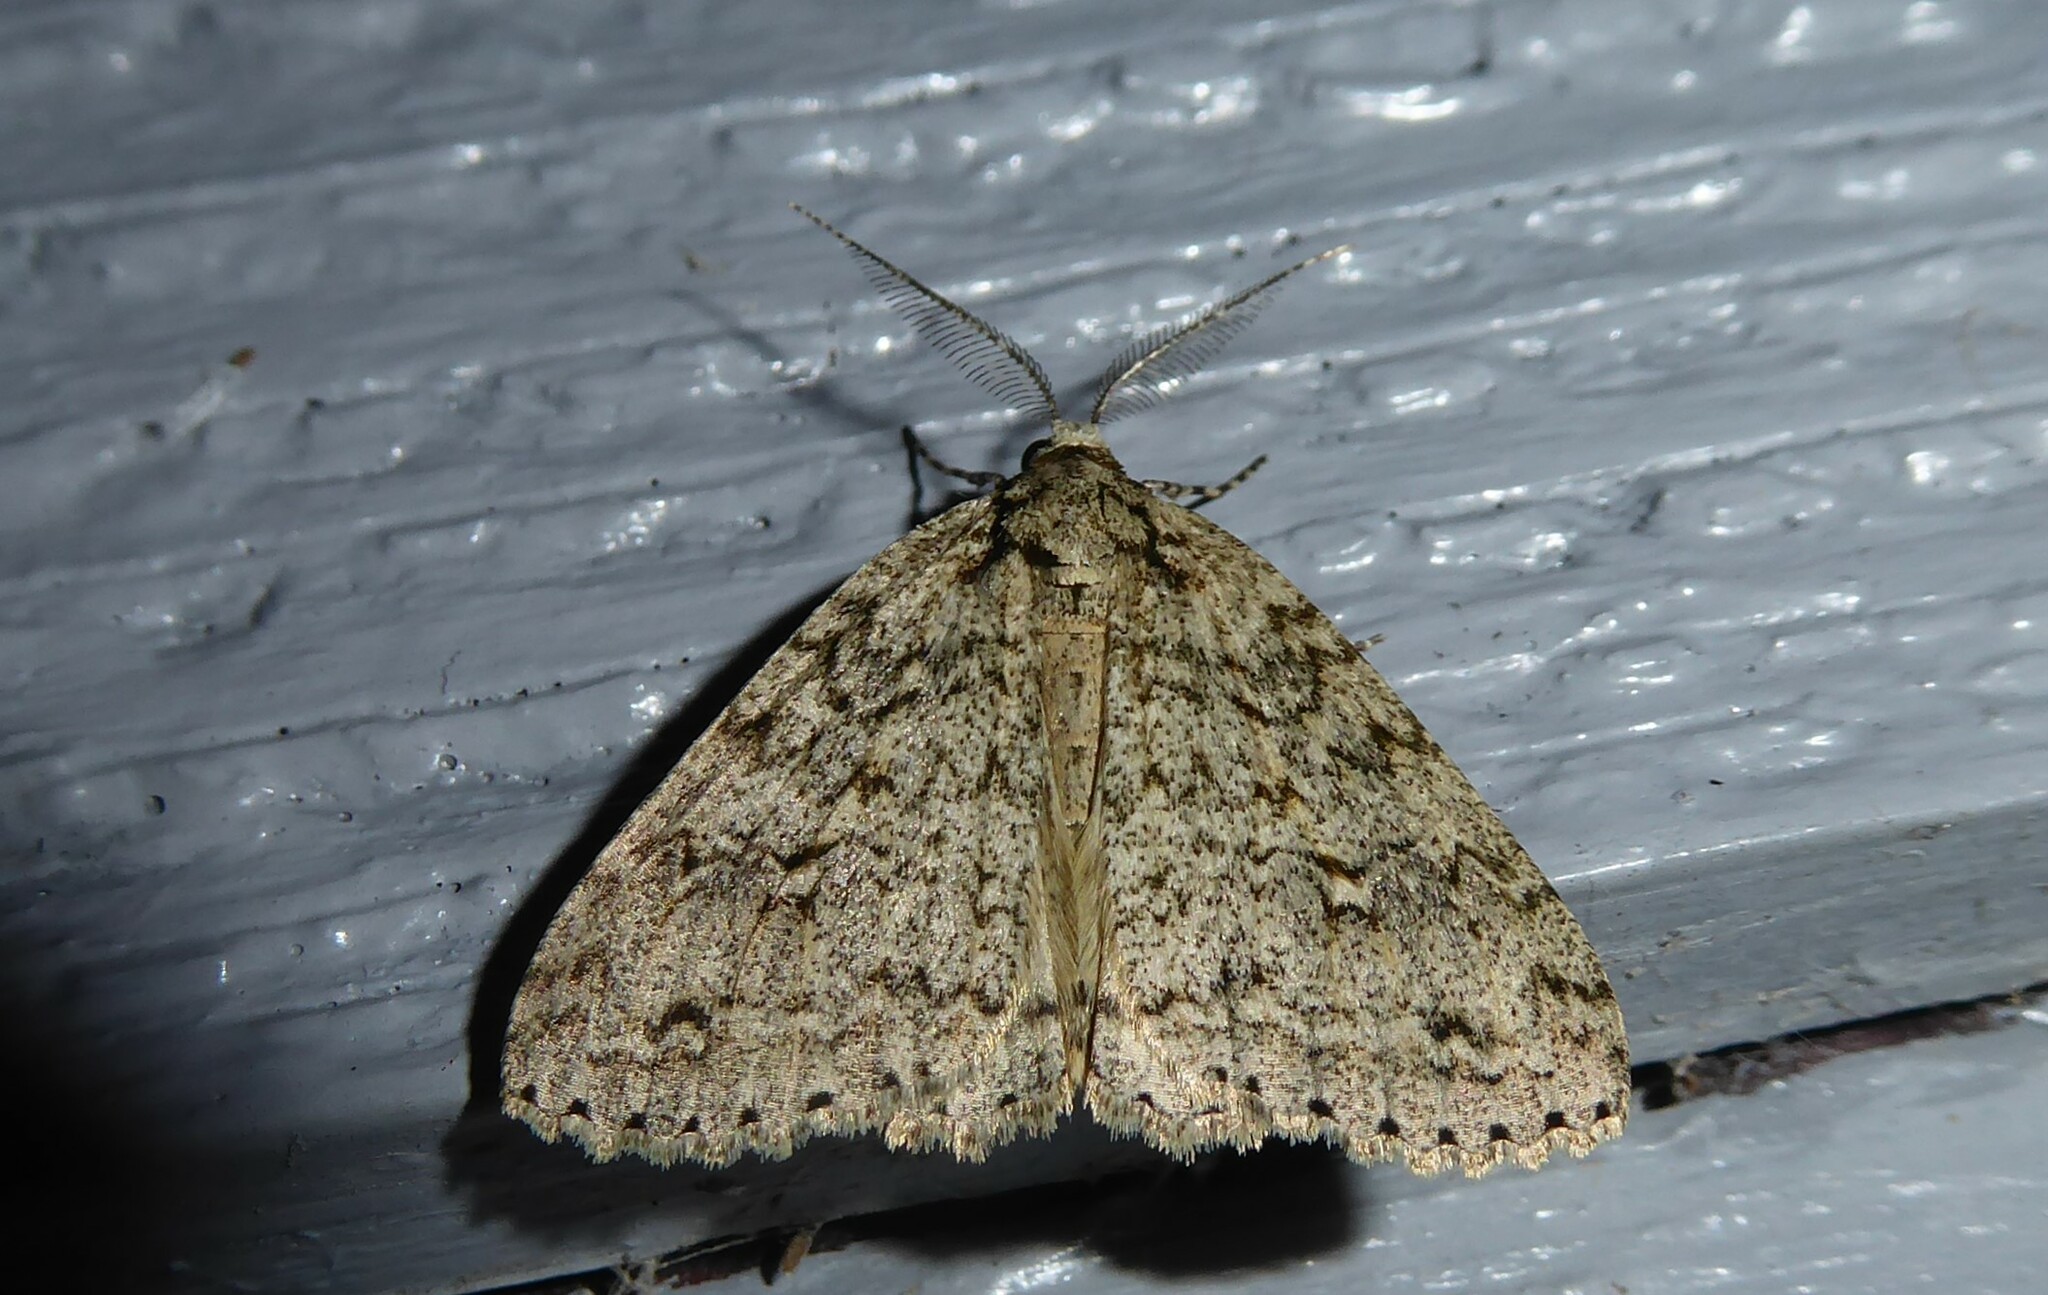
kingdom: Animalia
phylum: Arthropoda
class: Insecta
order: Lepidoptera
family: Geometridae
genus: Pseudocoremia
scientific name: Pseudocoremia rudisata
